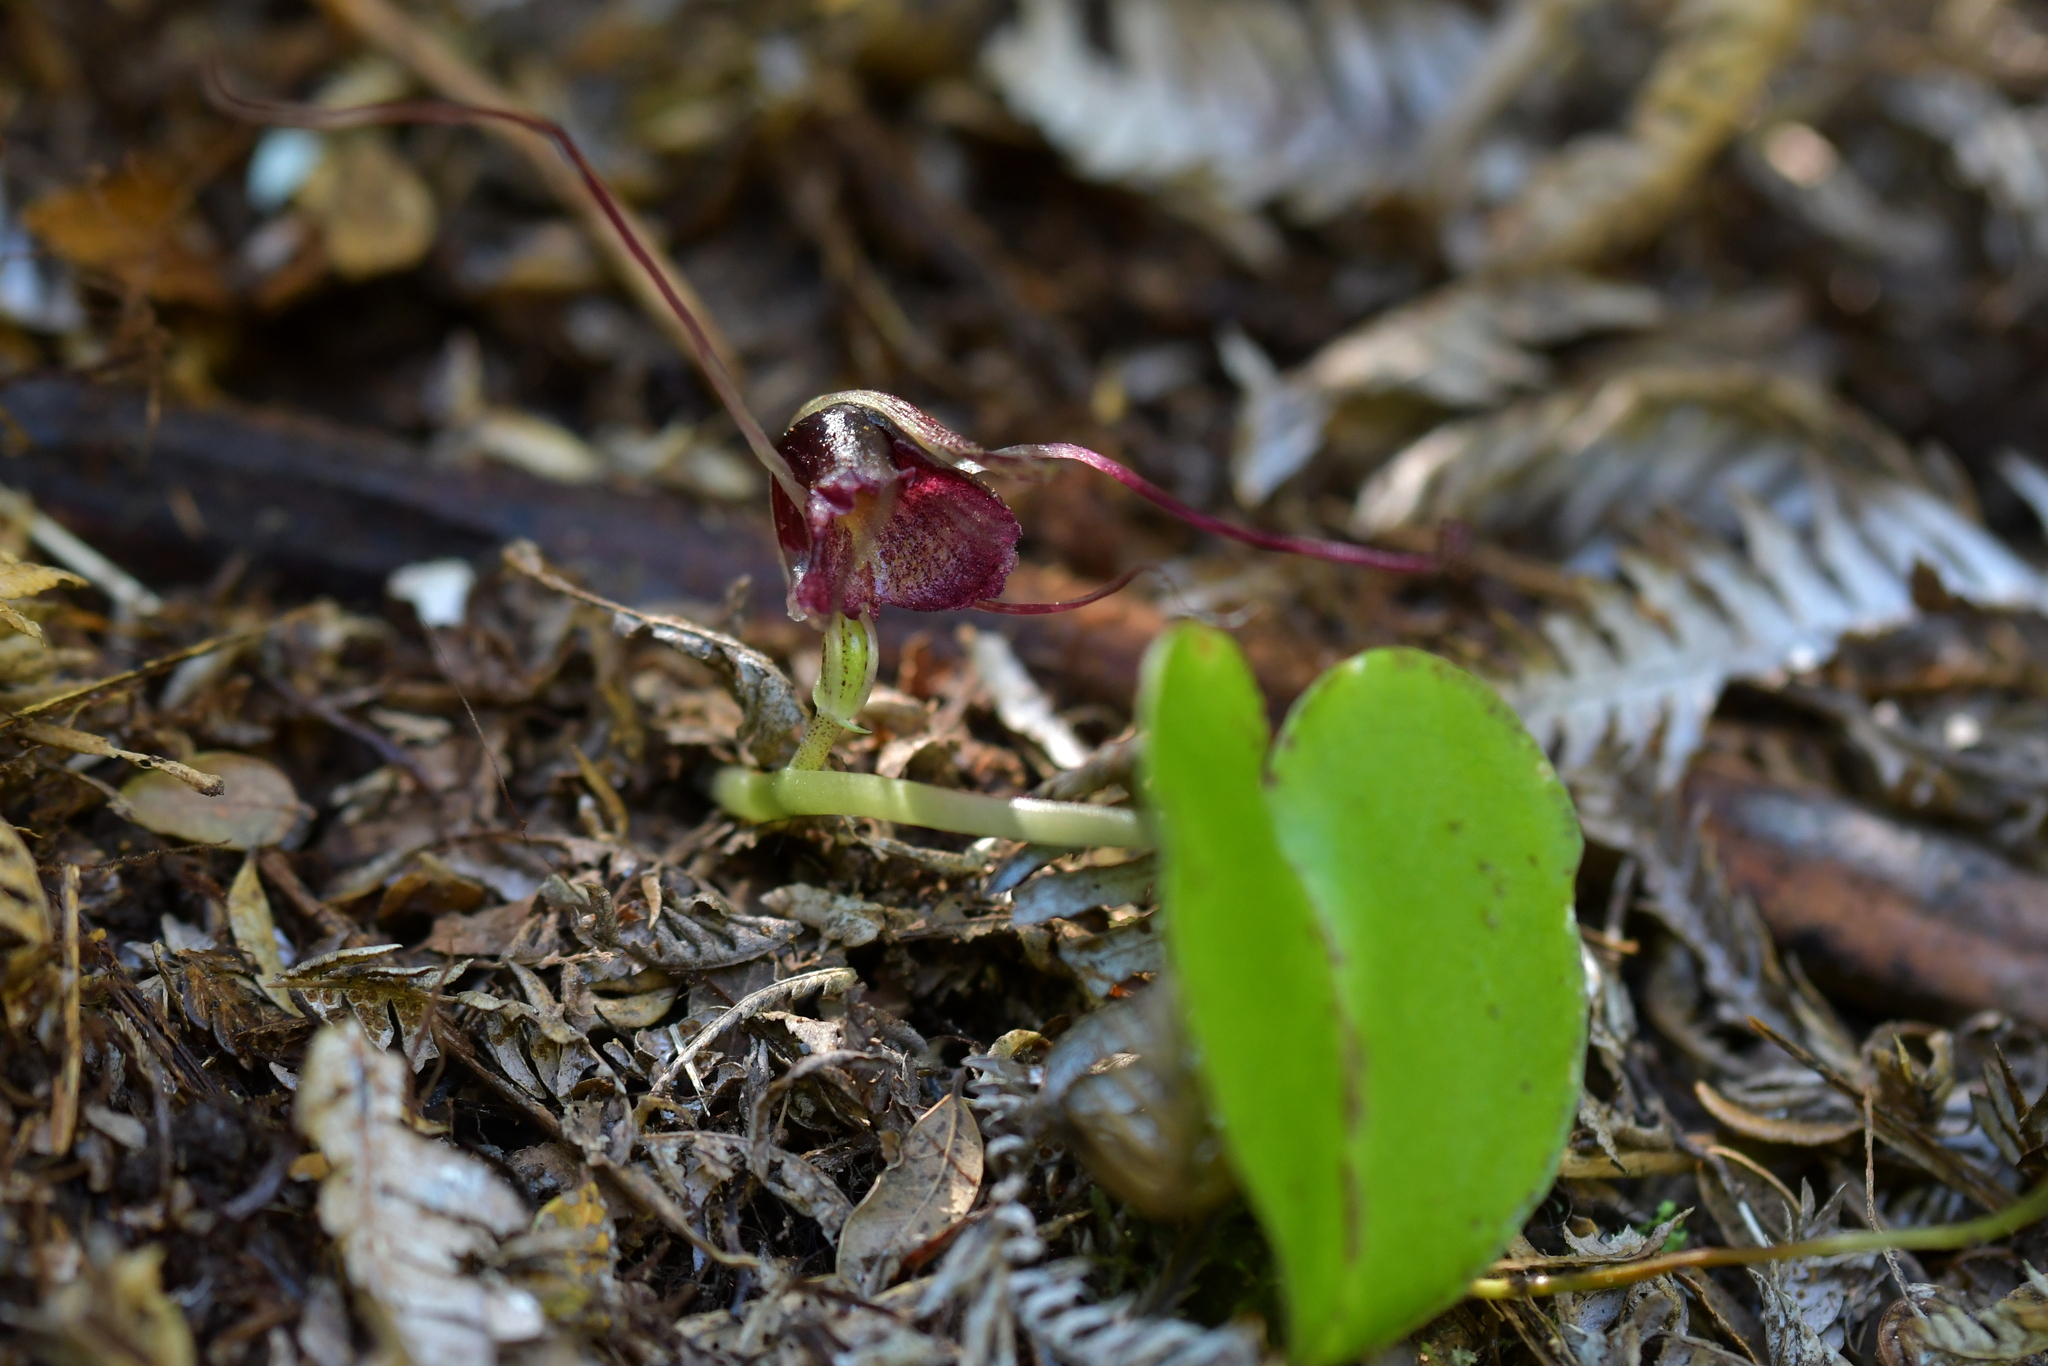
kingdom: Plantae
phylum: Tracheophyta
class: Liliopsida
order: Asparagales
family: Orchidaceae
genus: Corybas
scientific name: Corybas macranthus
